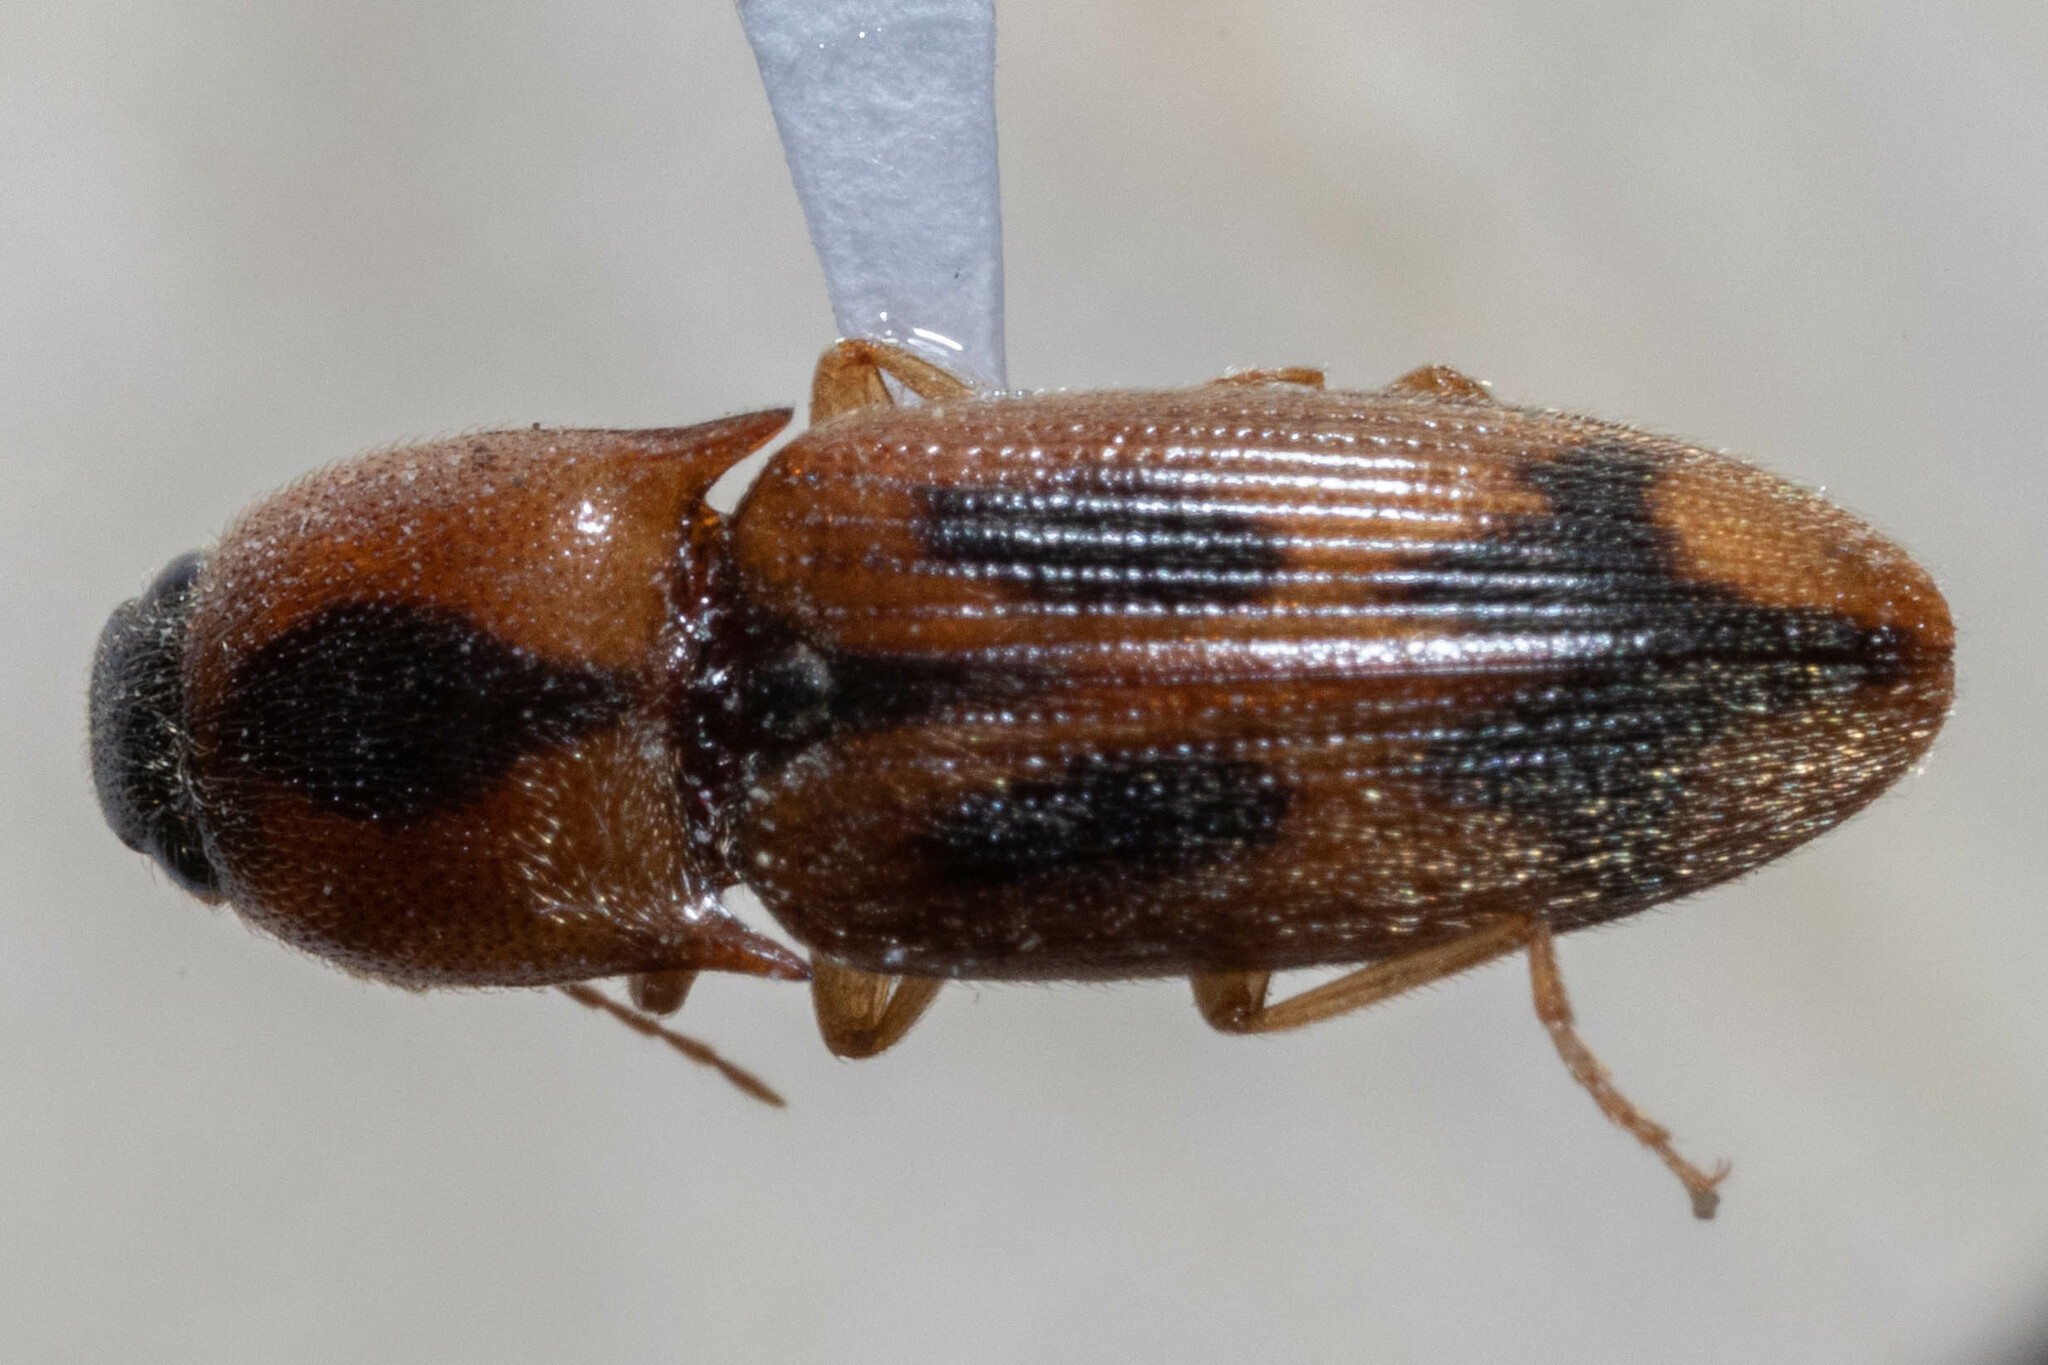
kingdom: Animalia
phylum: Arthropoda
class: Insecta
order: Coleoptera
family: Elateridae
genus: Aeolus
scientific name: Aeolus mellillus
